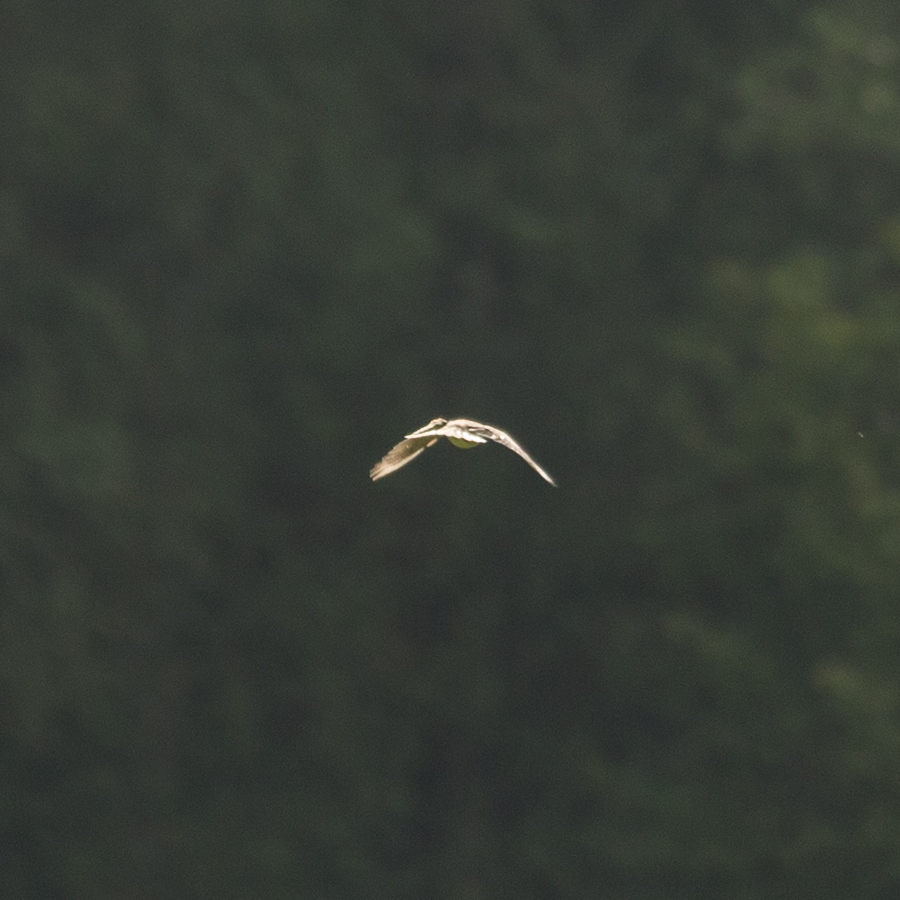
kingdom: Animalia
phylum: Chordata
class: Aves
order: Passeriformes
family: Alaudidae
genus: Alauda
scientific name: Alauda arvensis
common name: Eurasian skylark
